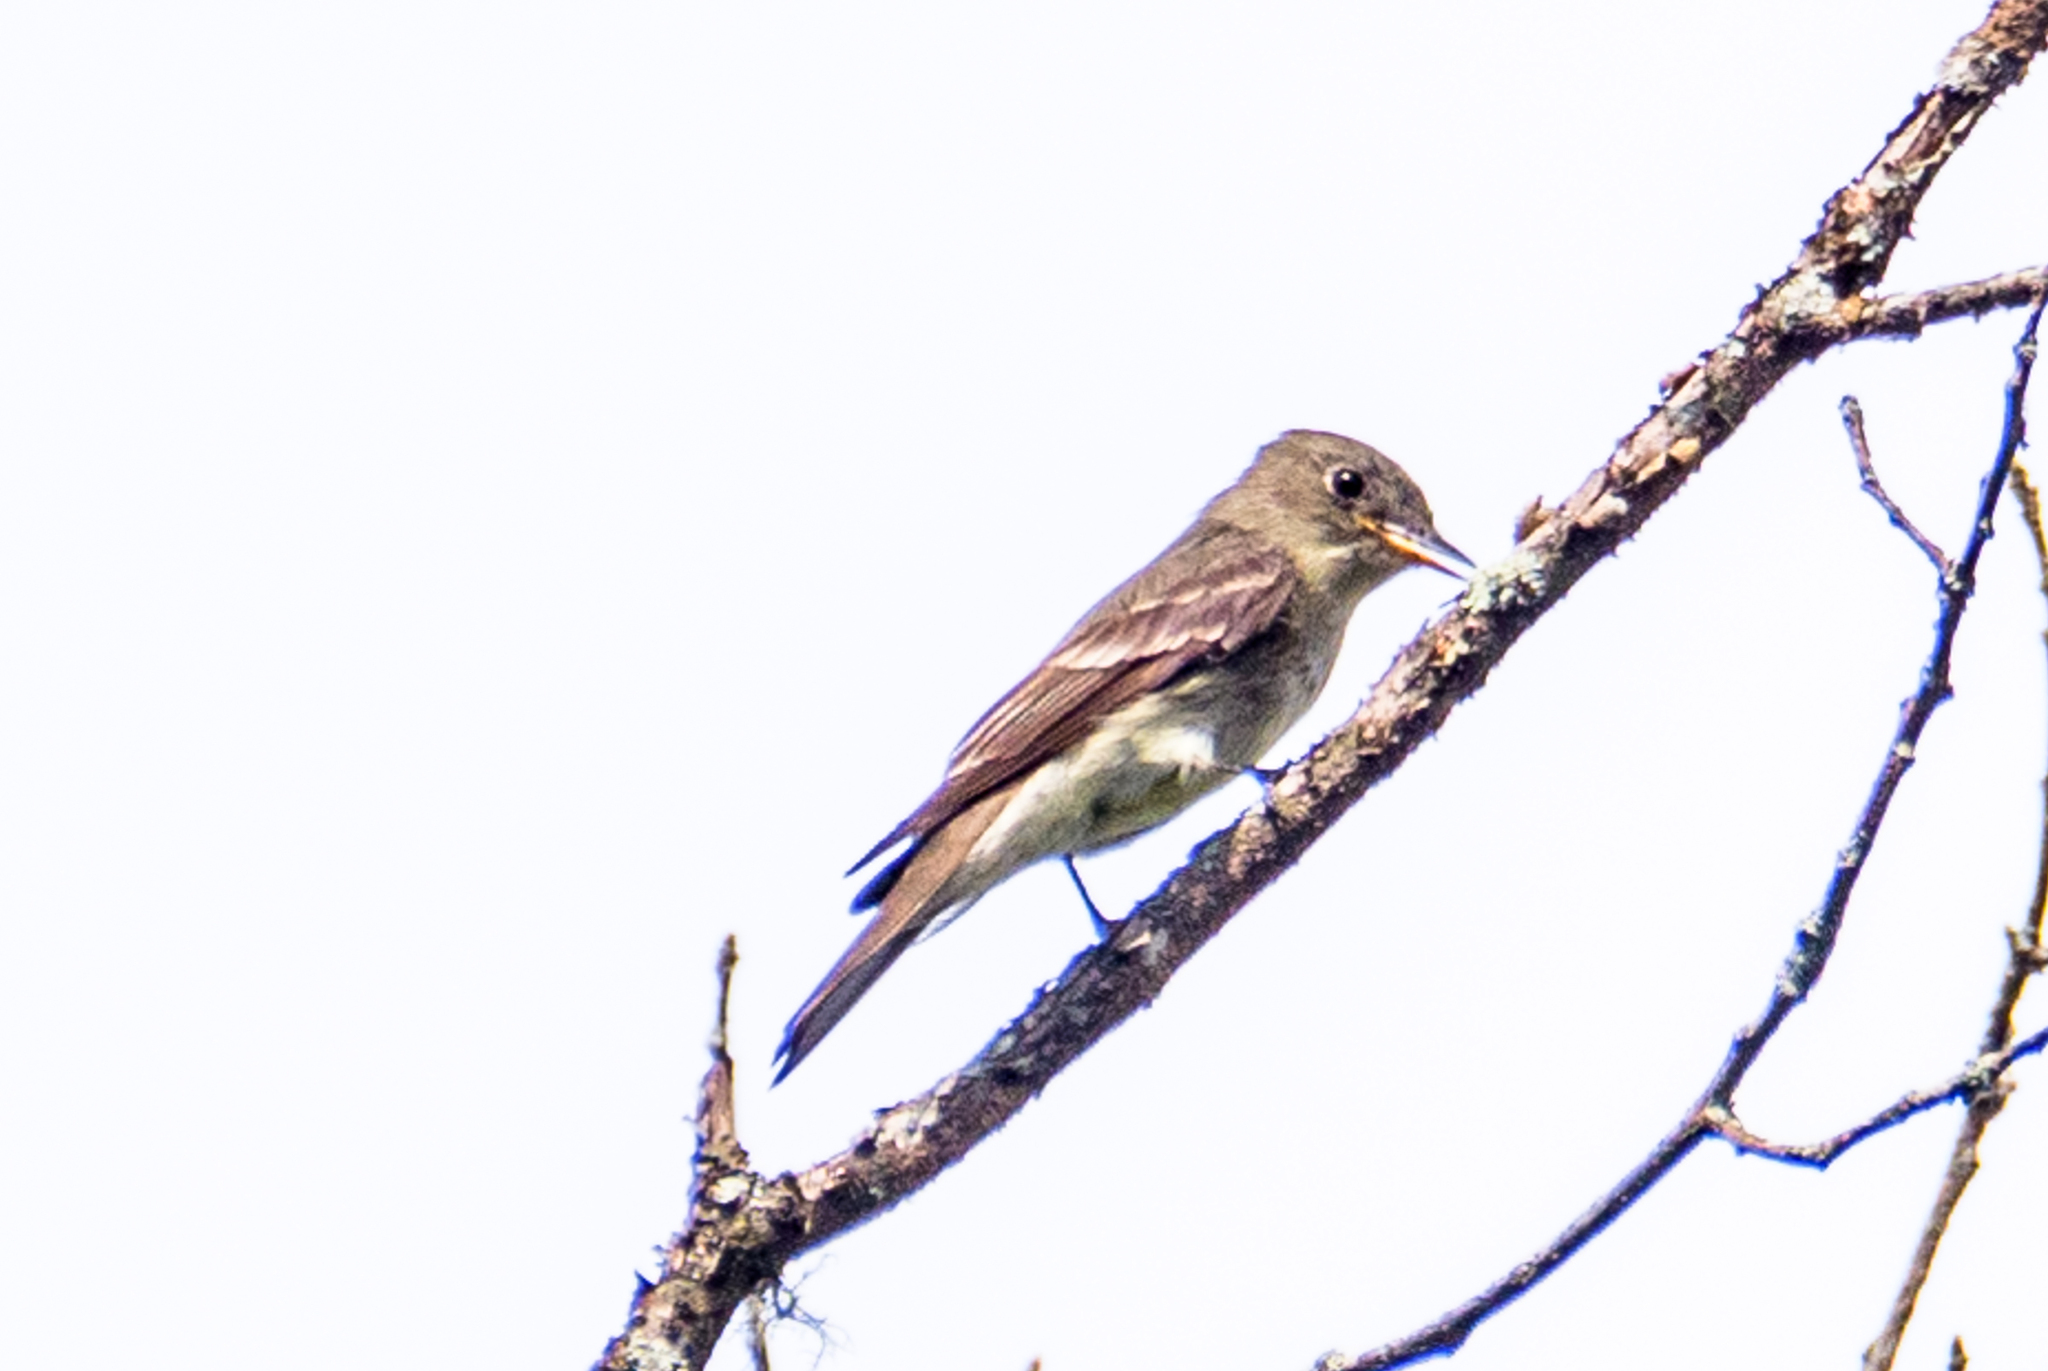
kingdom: Animalia
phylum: Chordata
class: Aves
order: Passeriformes
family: Tyrannidae
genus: Contopus
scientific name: Contopus virens
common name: Eastern wood-pewee
